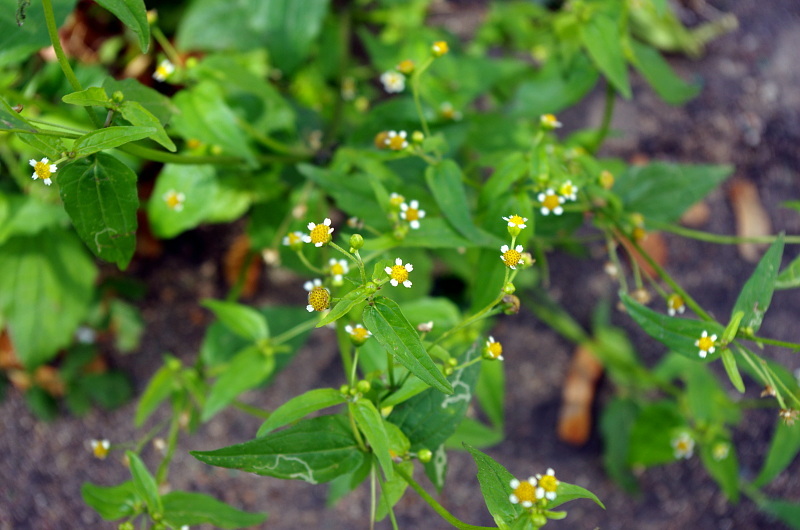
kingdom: Plantae
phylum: Tracheophyta
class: Magnoliopsida
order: Asterales
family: Asteraceae
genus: Galinsoga
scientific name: Galinsoga parviflora
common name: Gallant soldier
